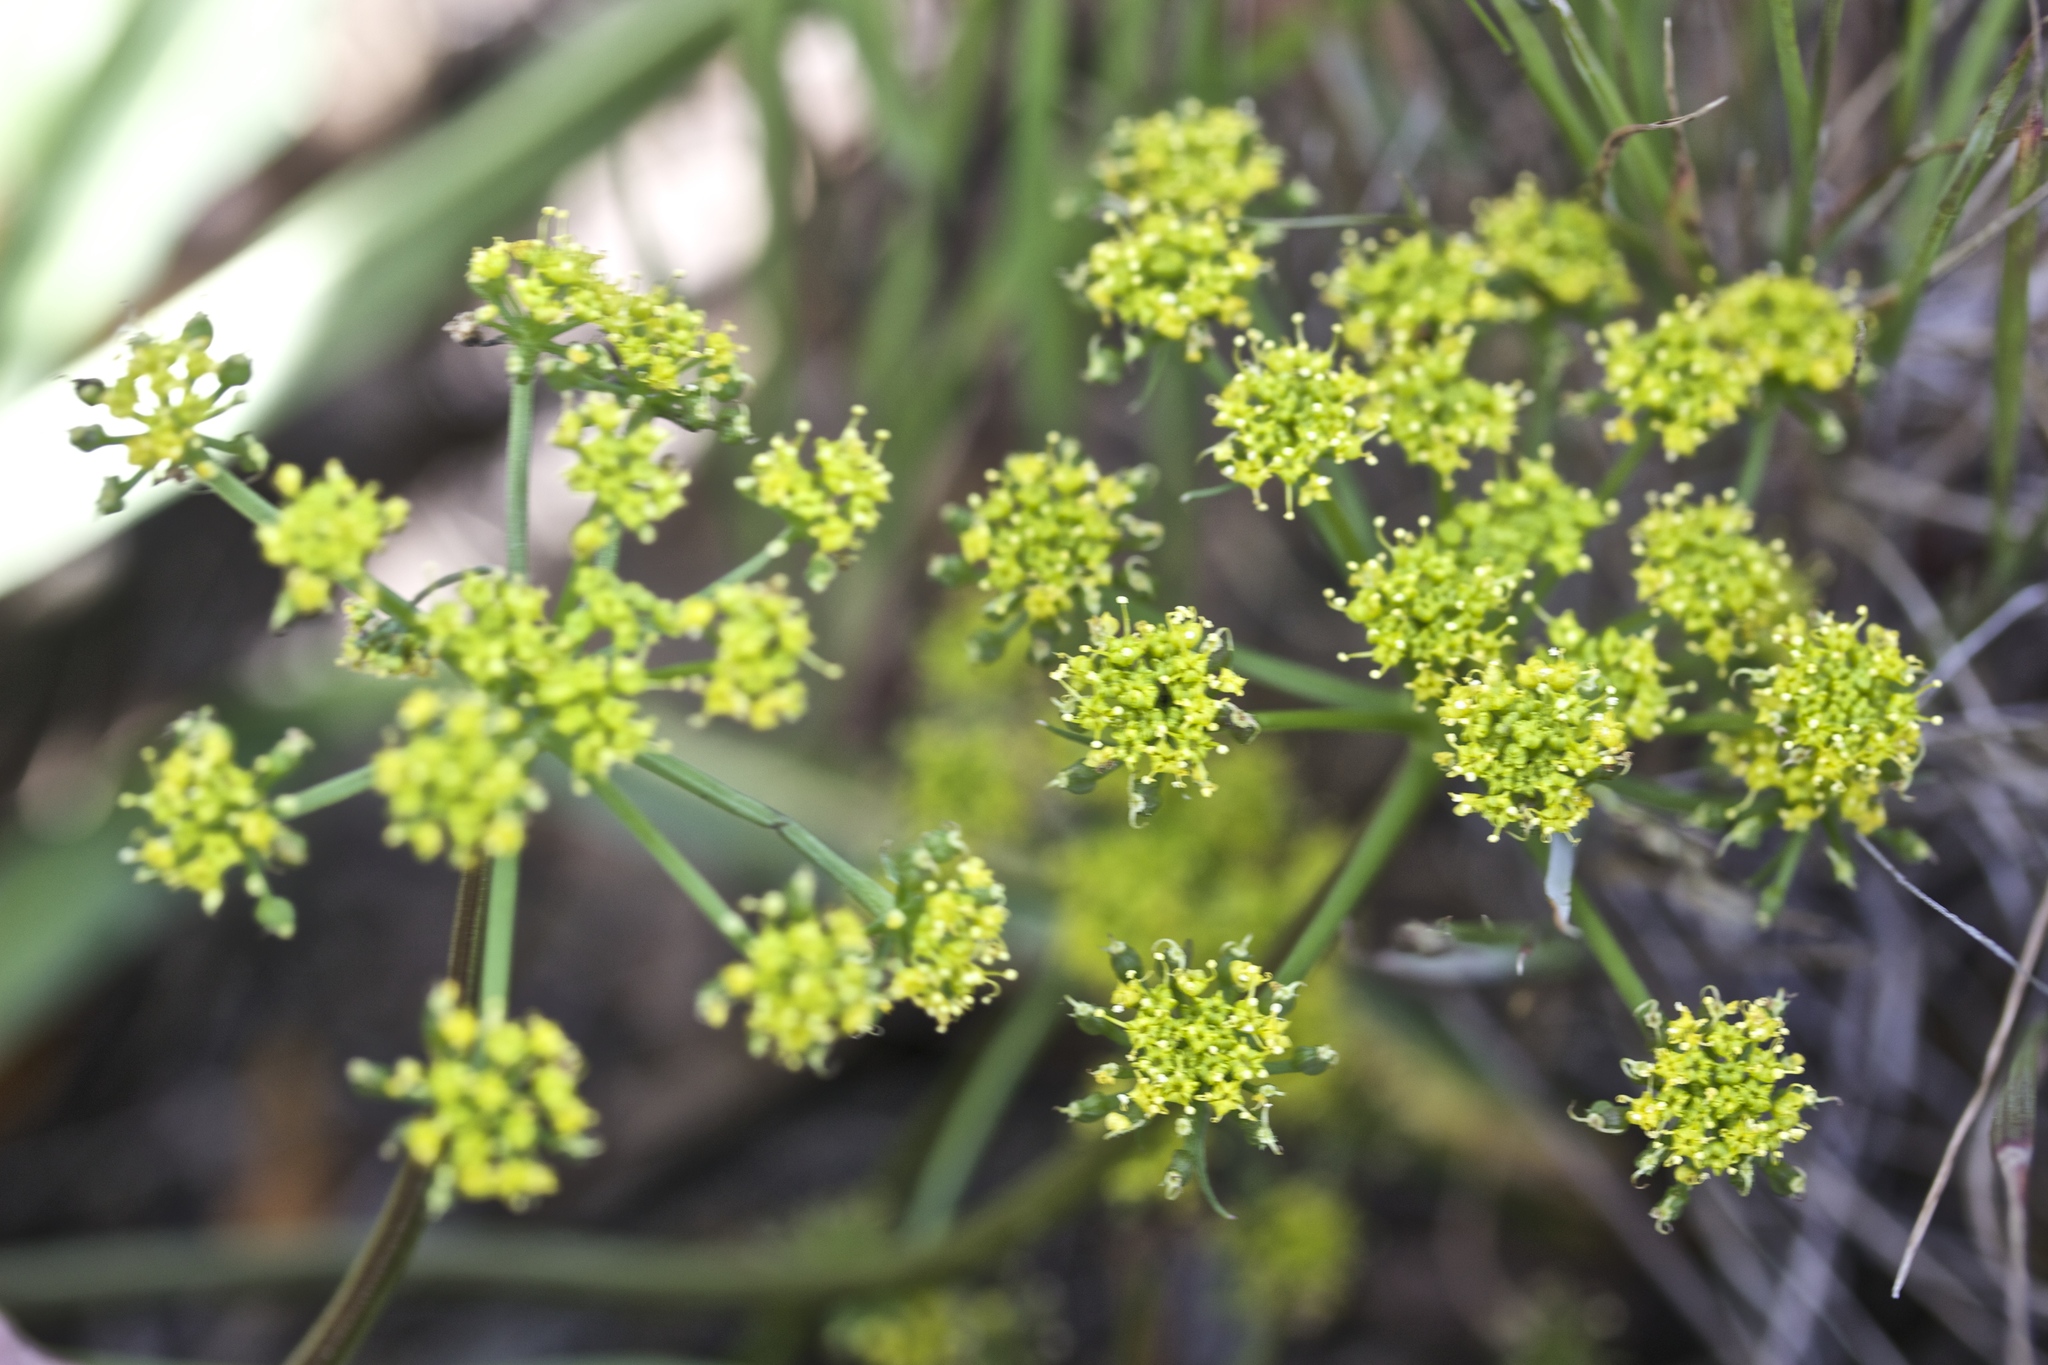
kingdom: Plantae
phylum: Tracheophyta
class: Magnoliopsida
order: Apiales
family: Apiaceae
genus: Tauschia
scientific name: Tauschia kelloggii
